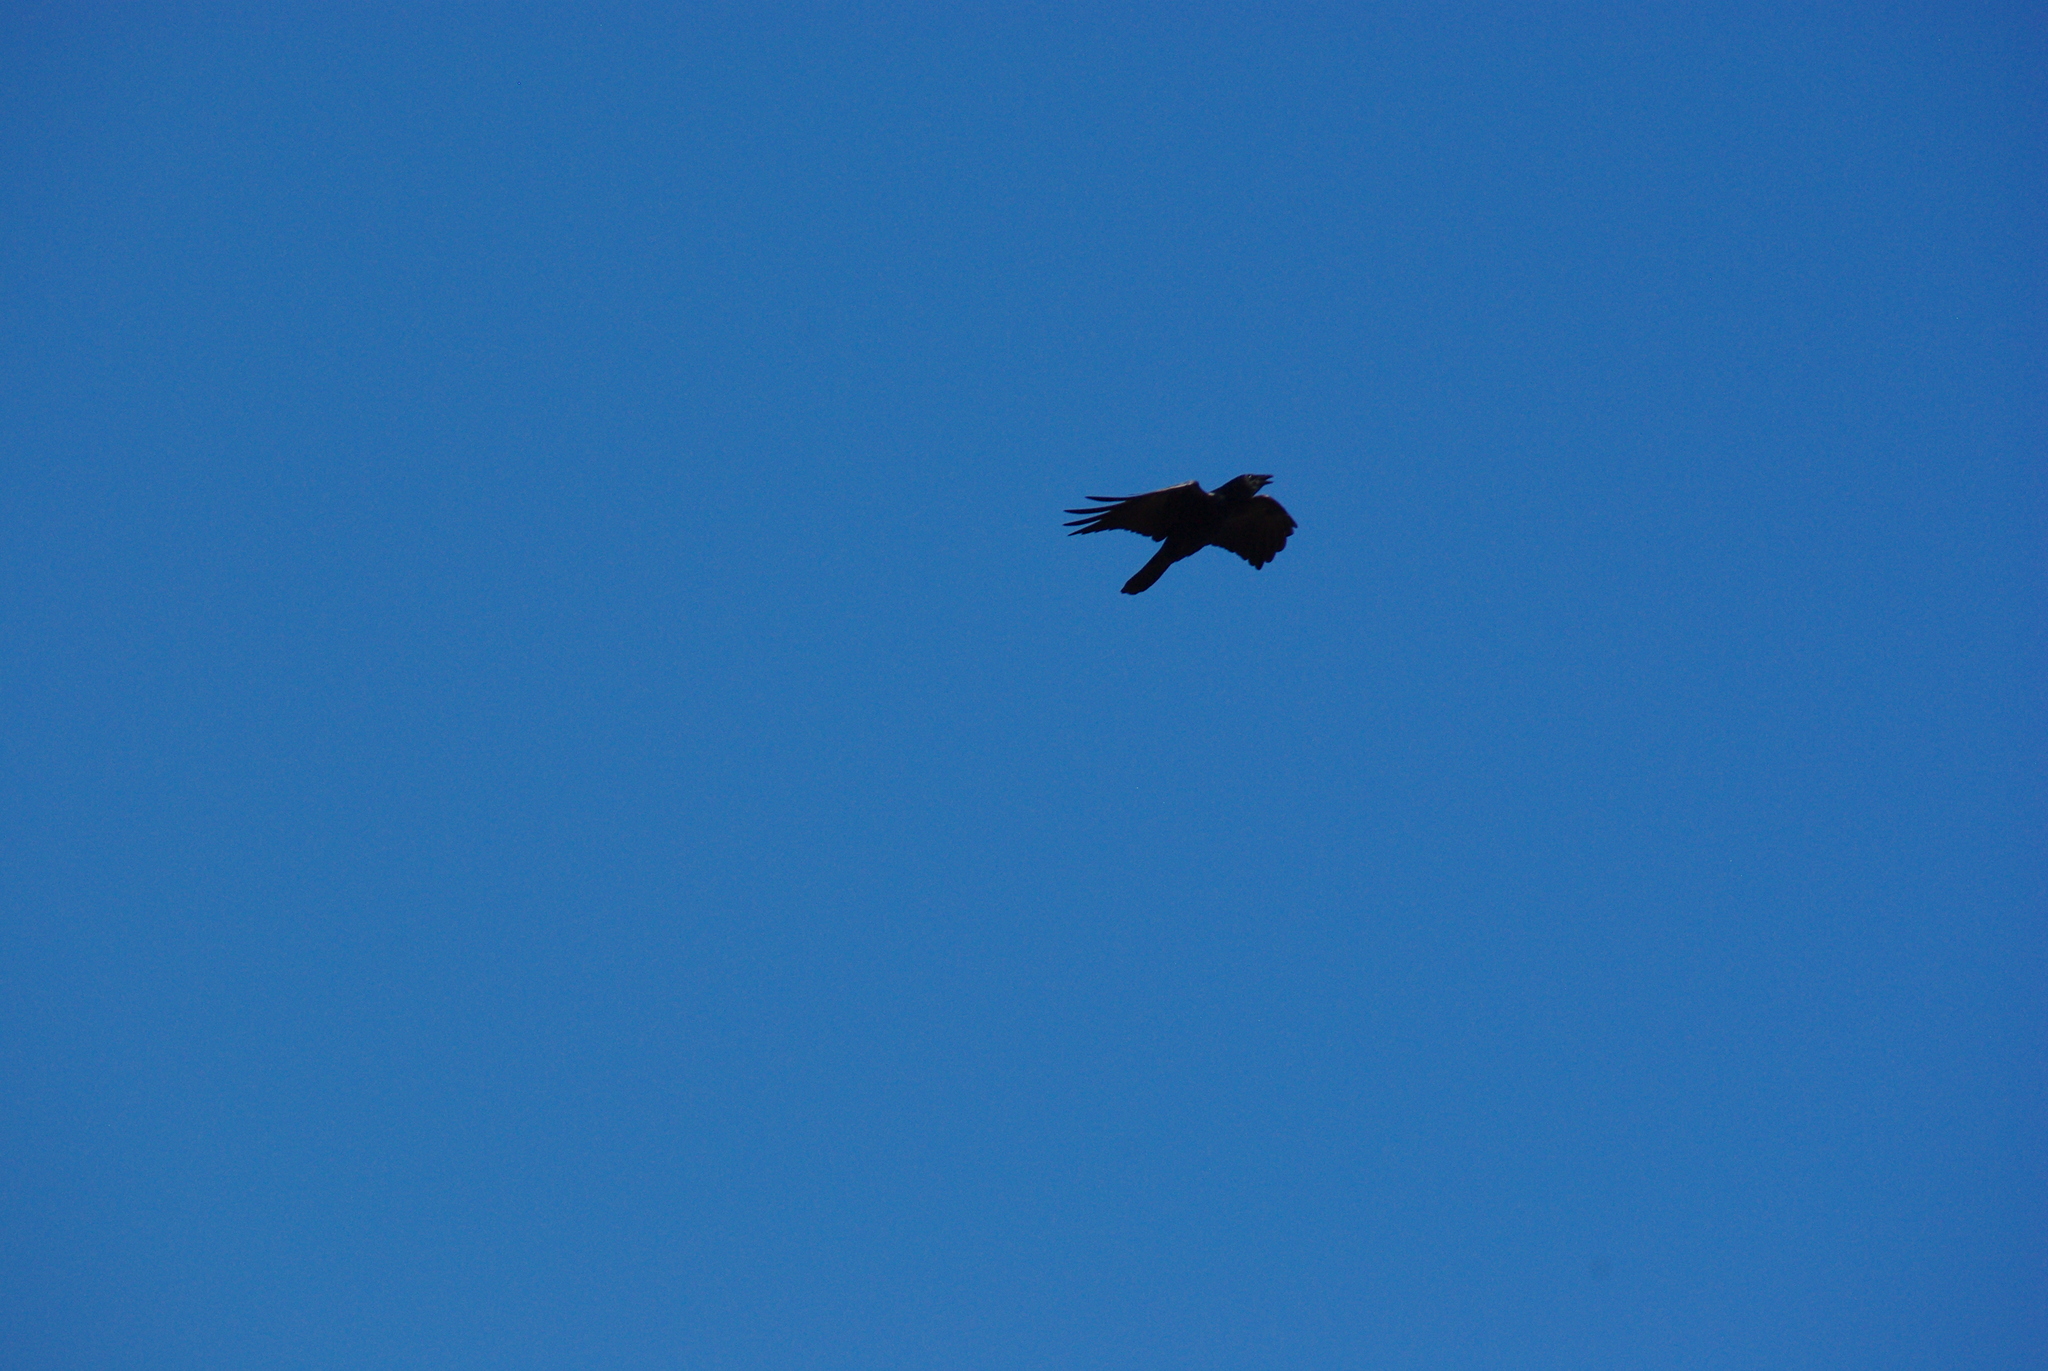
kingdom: Animalia
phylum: Chordata
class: Aves
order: Passeriformes
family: Corvidae
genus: Corvus
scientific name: Corvus
